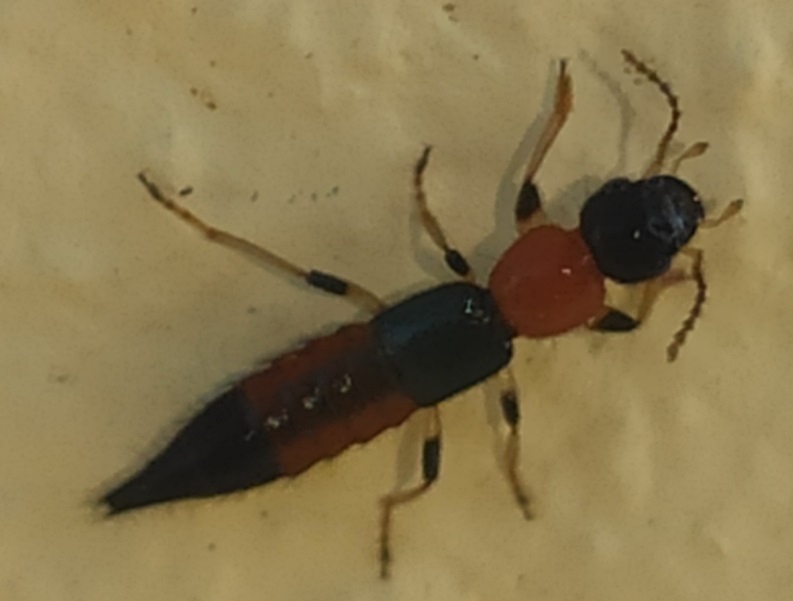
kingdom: Animalia
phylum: Arthropoda
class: Insecta
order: Coleoptera
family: Staphylinidae
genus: Paederus
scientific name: Paederus littoralis
